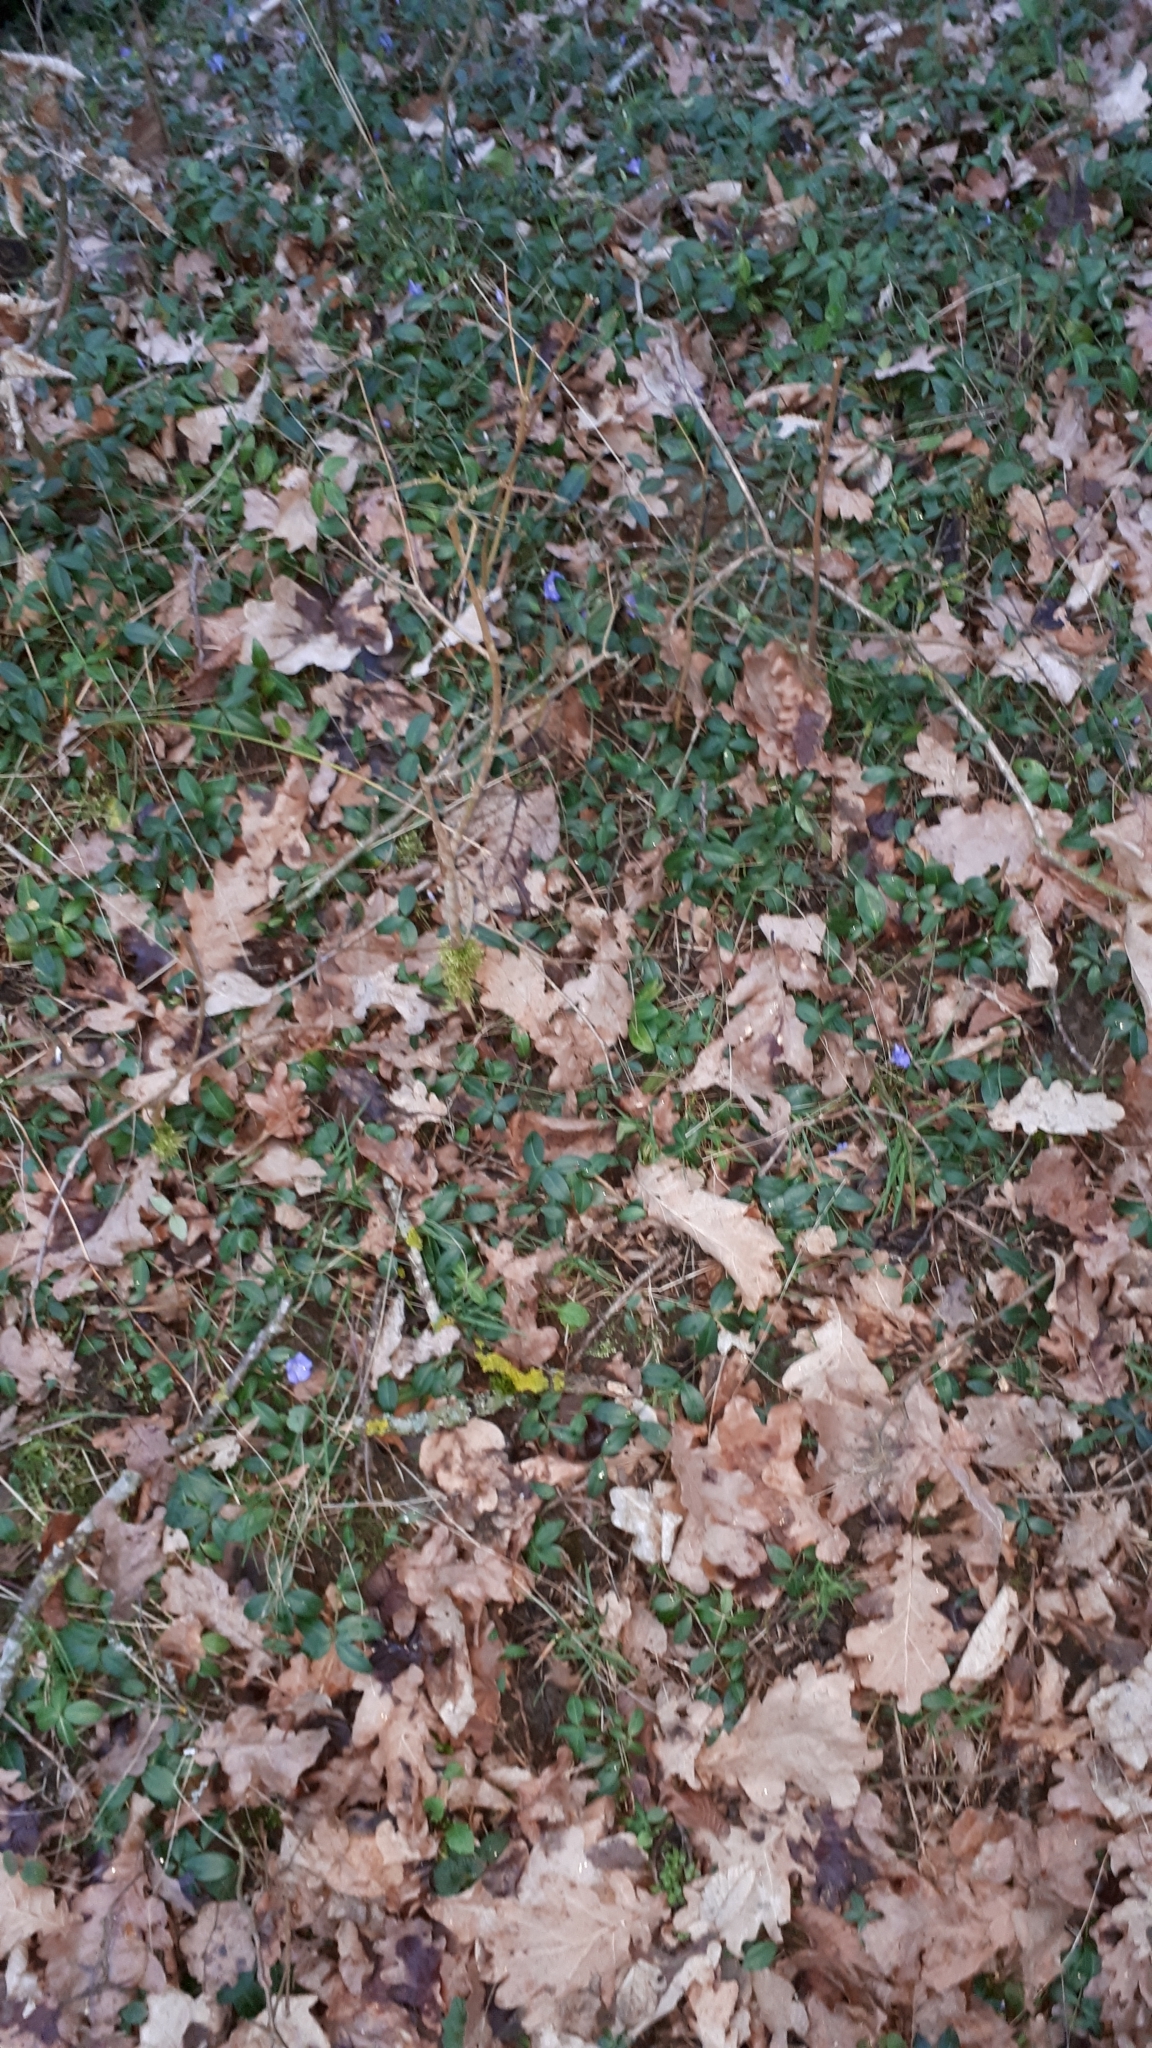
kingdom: Plantae
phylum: Tracheophyta
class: Magnoliopsida
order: Gentianales
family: Apocynaceae
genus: Vinca
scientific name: Vinca minor
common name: Lesser periwinkle
